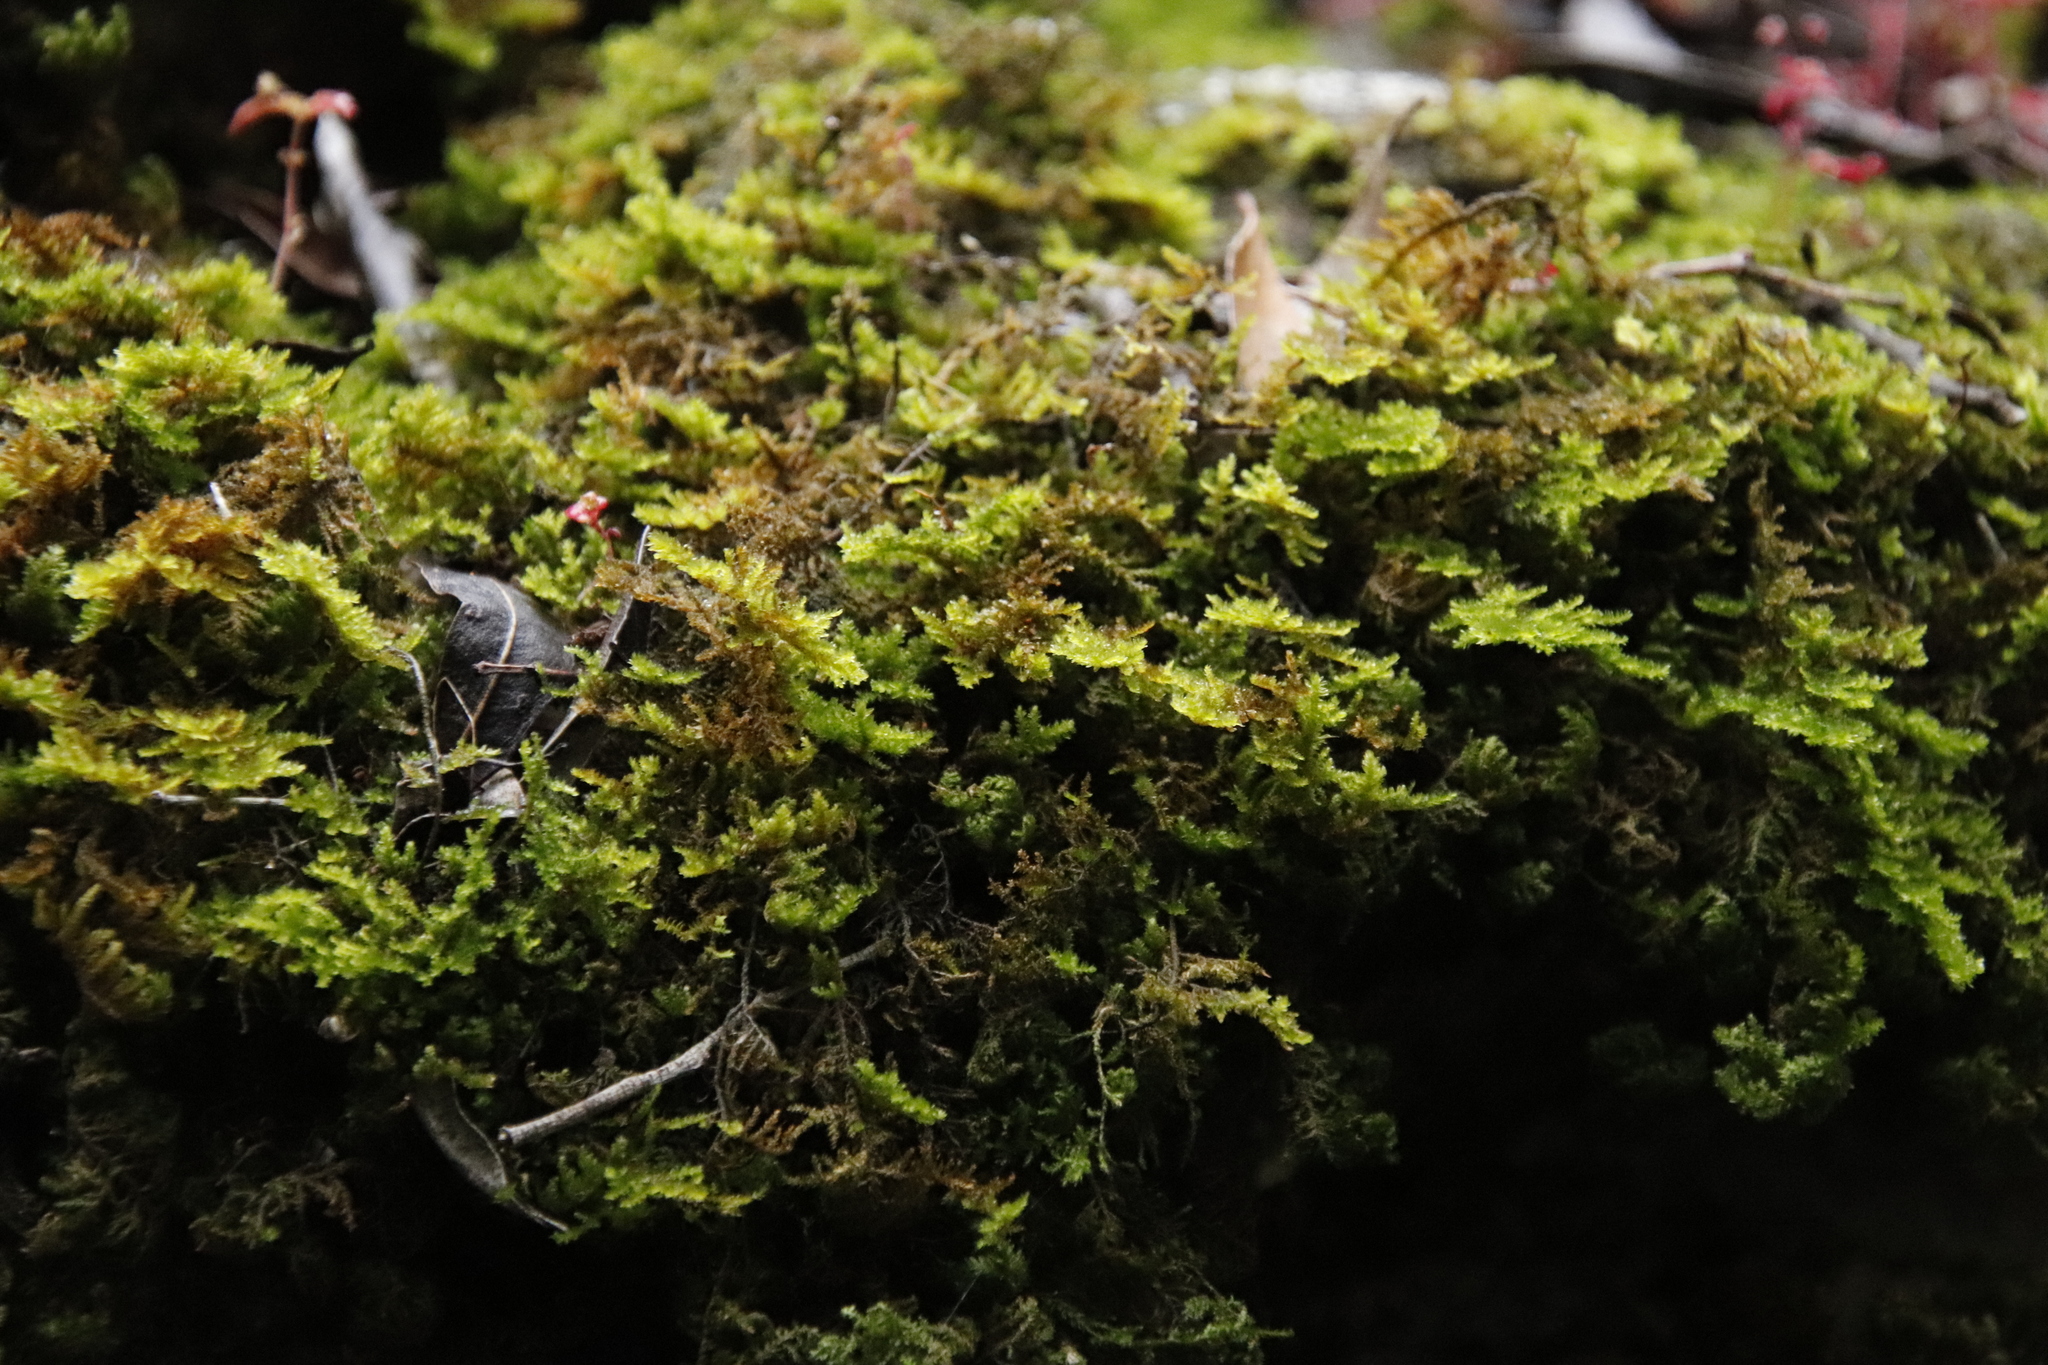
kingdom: Plantae
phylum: Bryophyta
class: Bryopsida
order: Hypnales
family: Neckeraceae
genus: Leptodon
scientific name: Leptodon smithii
